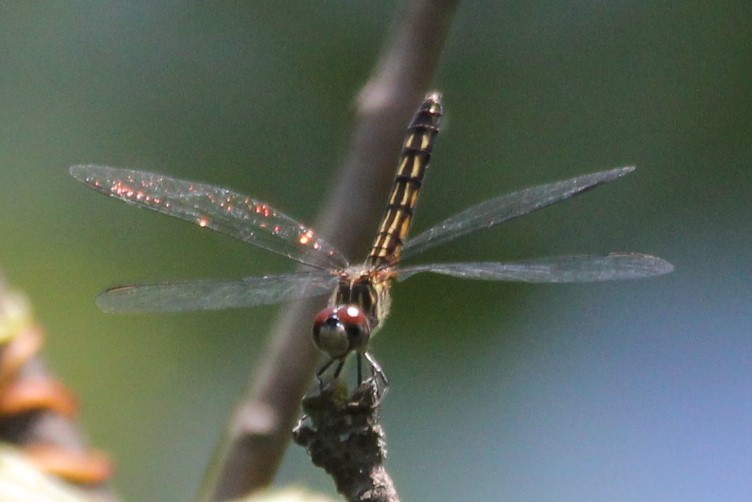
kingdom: Animalia
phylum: Arthropoda
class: Insecta
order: Odonata
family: Libellulidae
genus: Pachydiplax
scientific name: Pachydiplax longipennis
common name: Blue dasher
